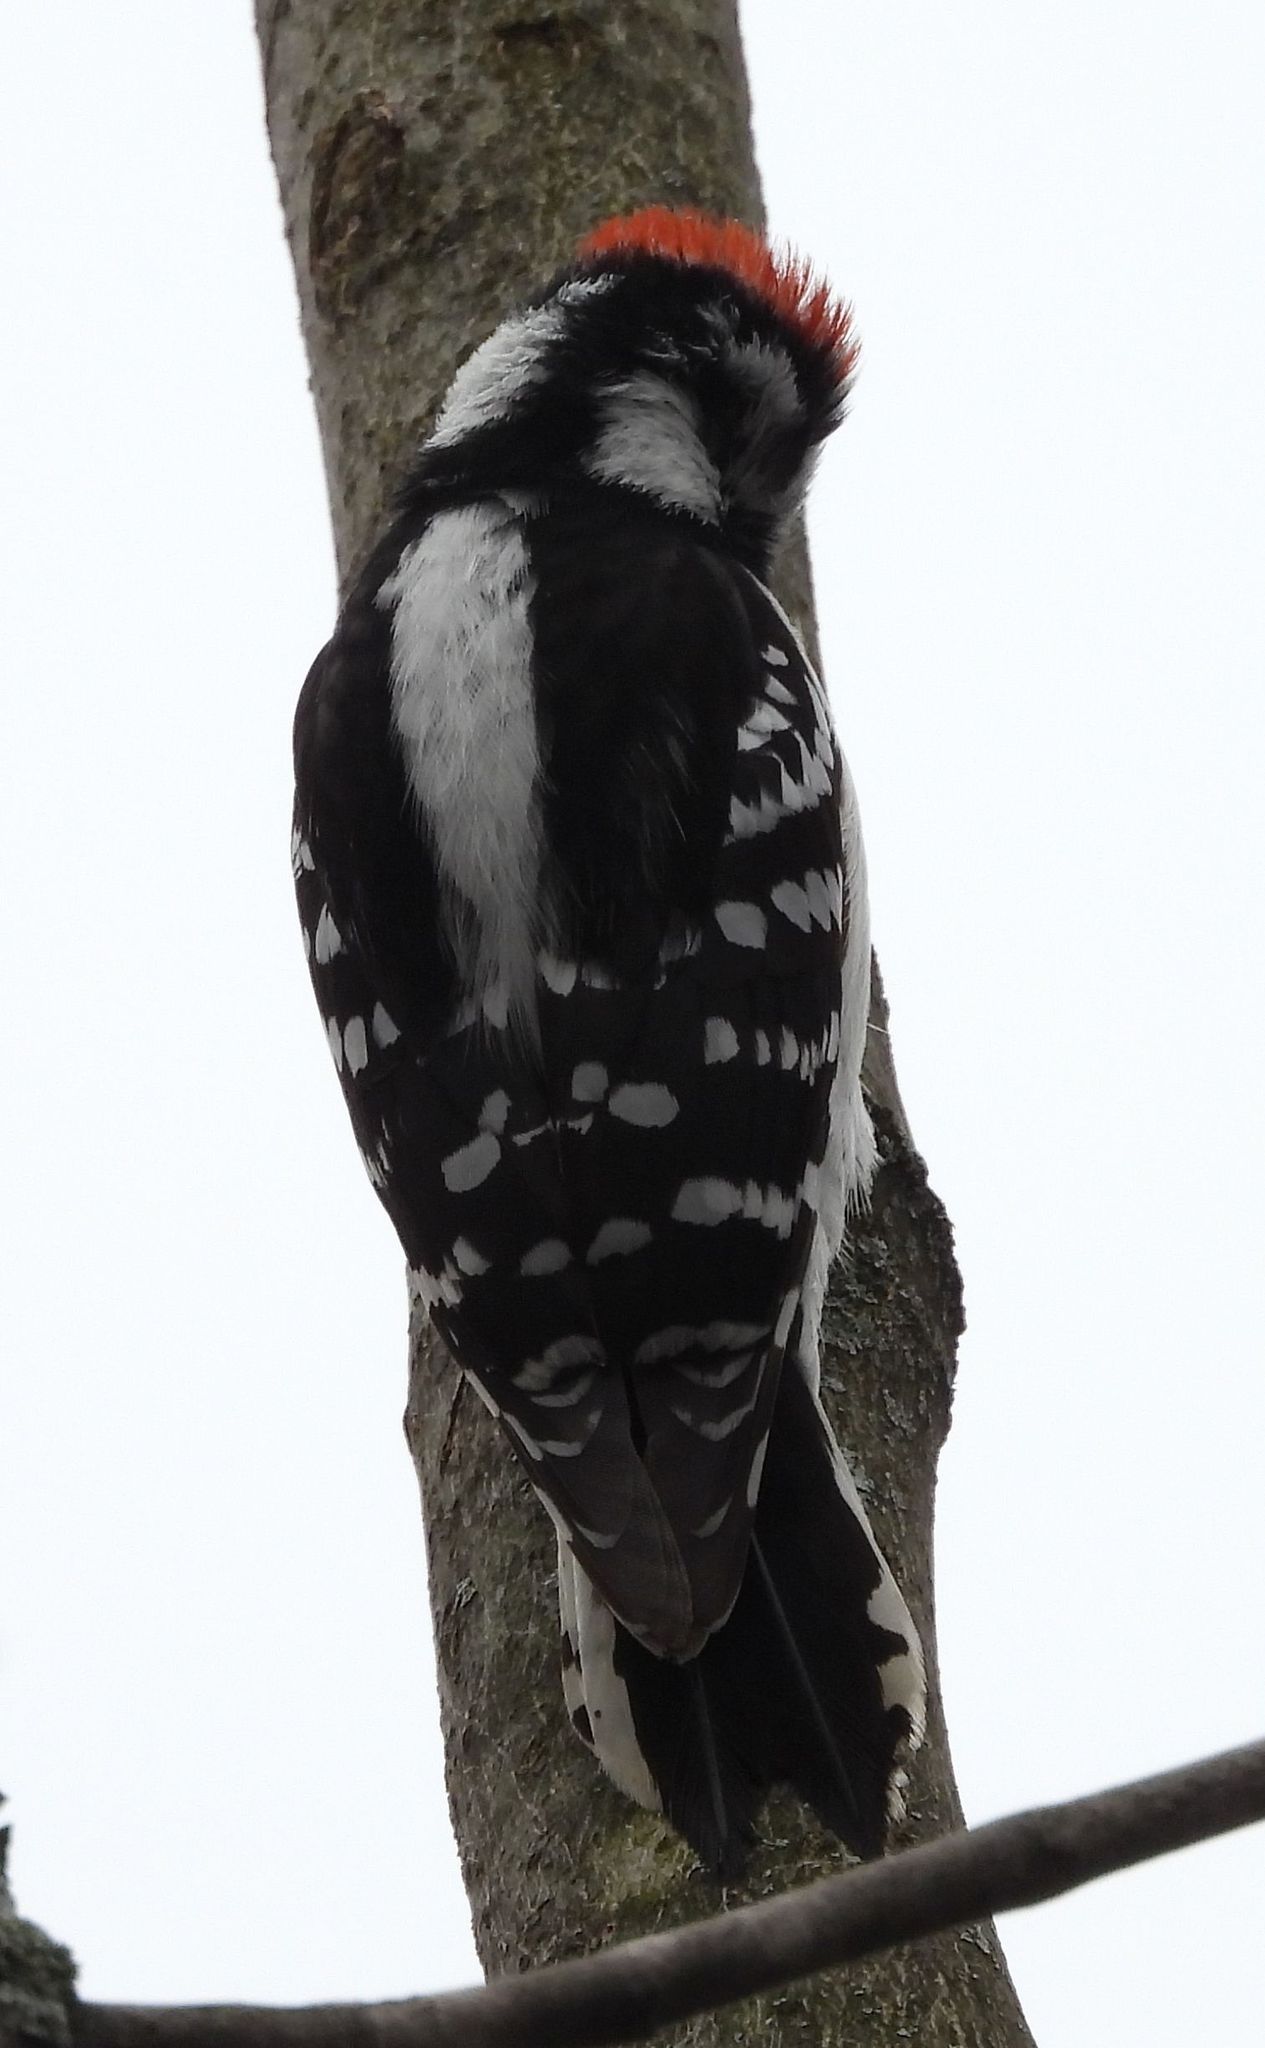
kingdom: Animalia
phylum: Chordata
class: Aves
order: Piciformes
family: Picidae
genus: Dryobates
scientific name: Dryobates pubescens
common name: Downy woodpecker
